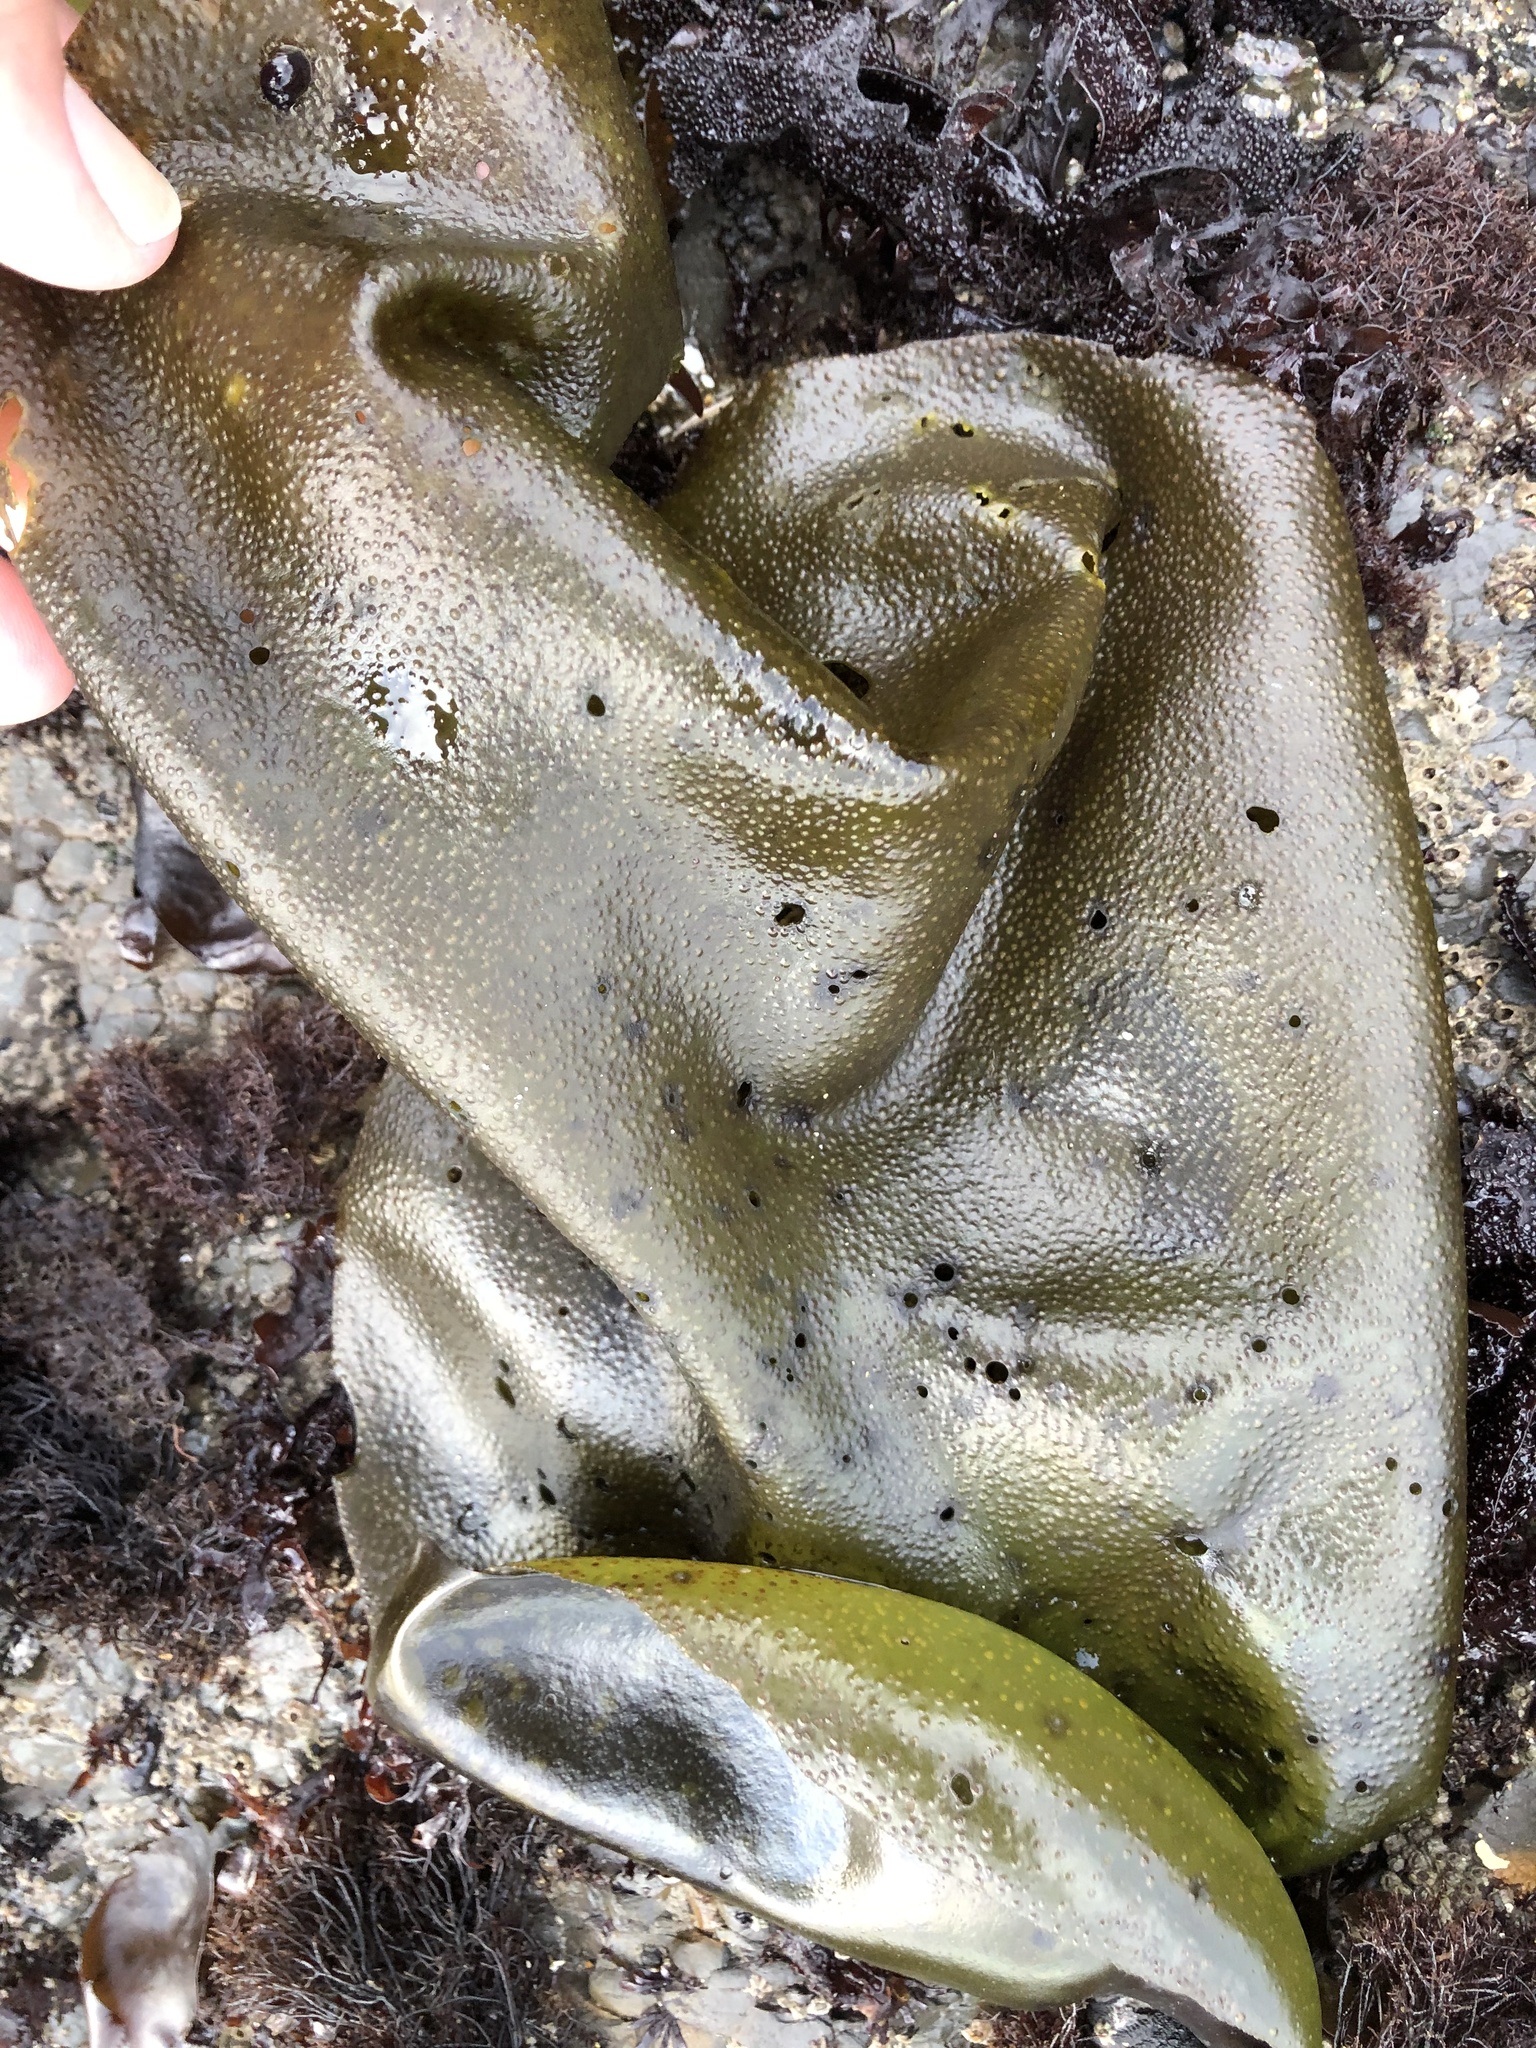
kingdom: Plantae
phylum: Rhodophyta
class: Florideophyceae
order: Gigartinales
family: Gigartinaceae
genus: Mazzaella
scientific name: Mazzaella flaccida
